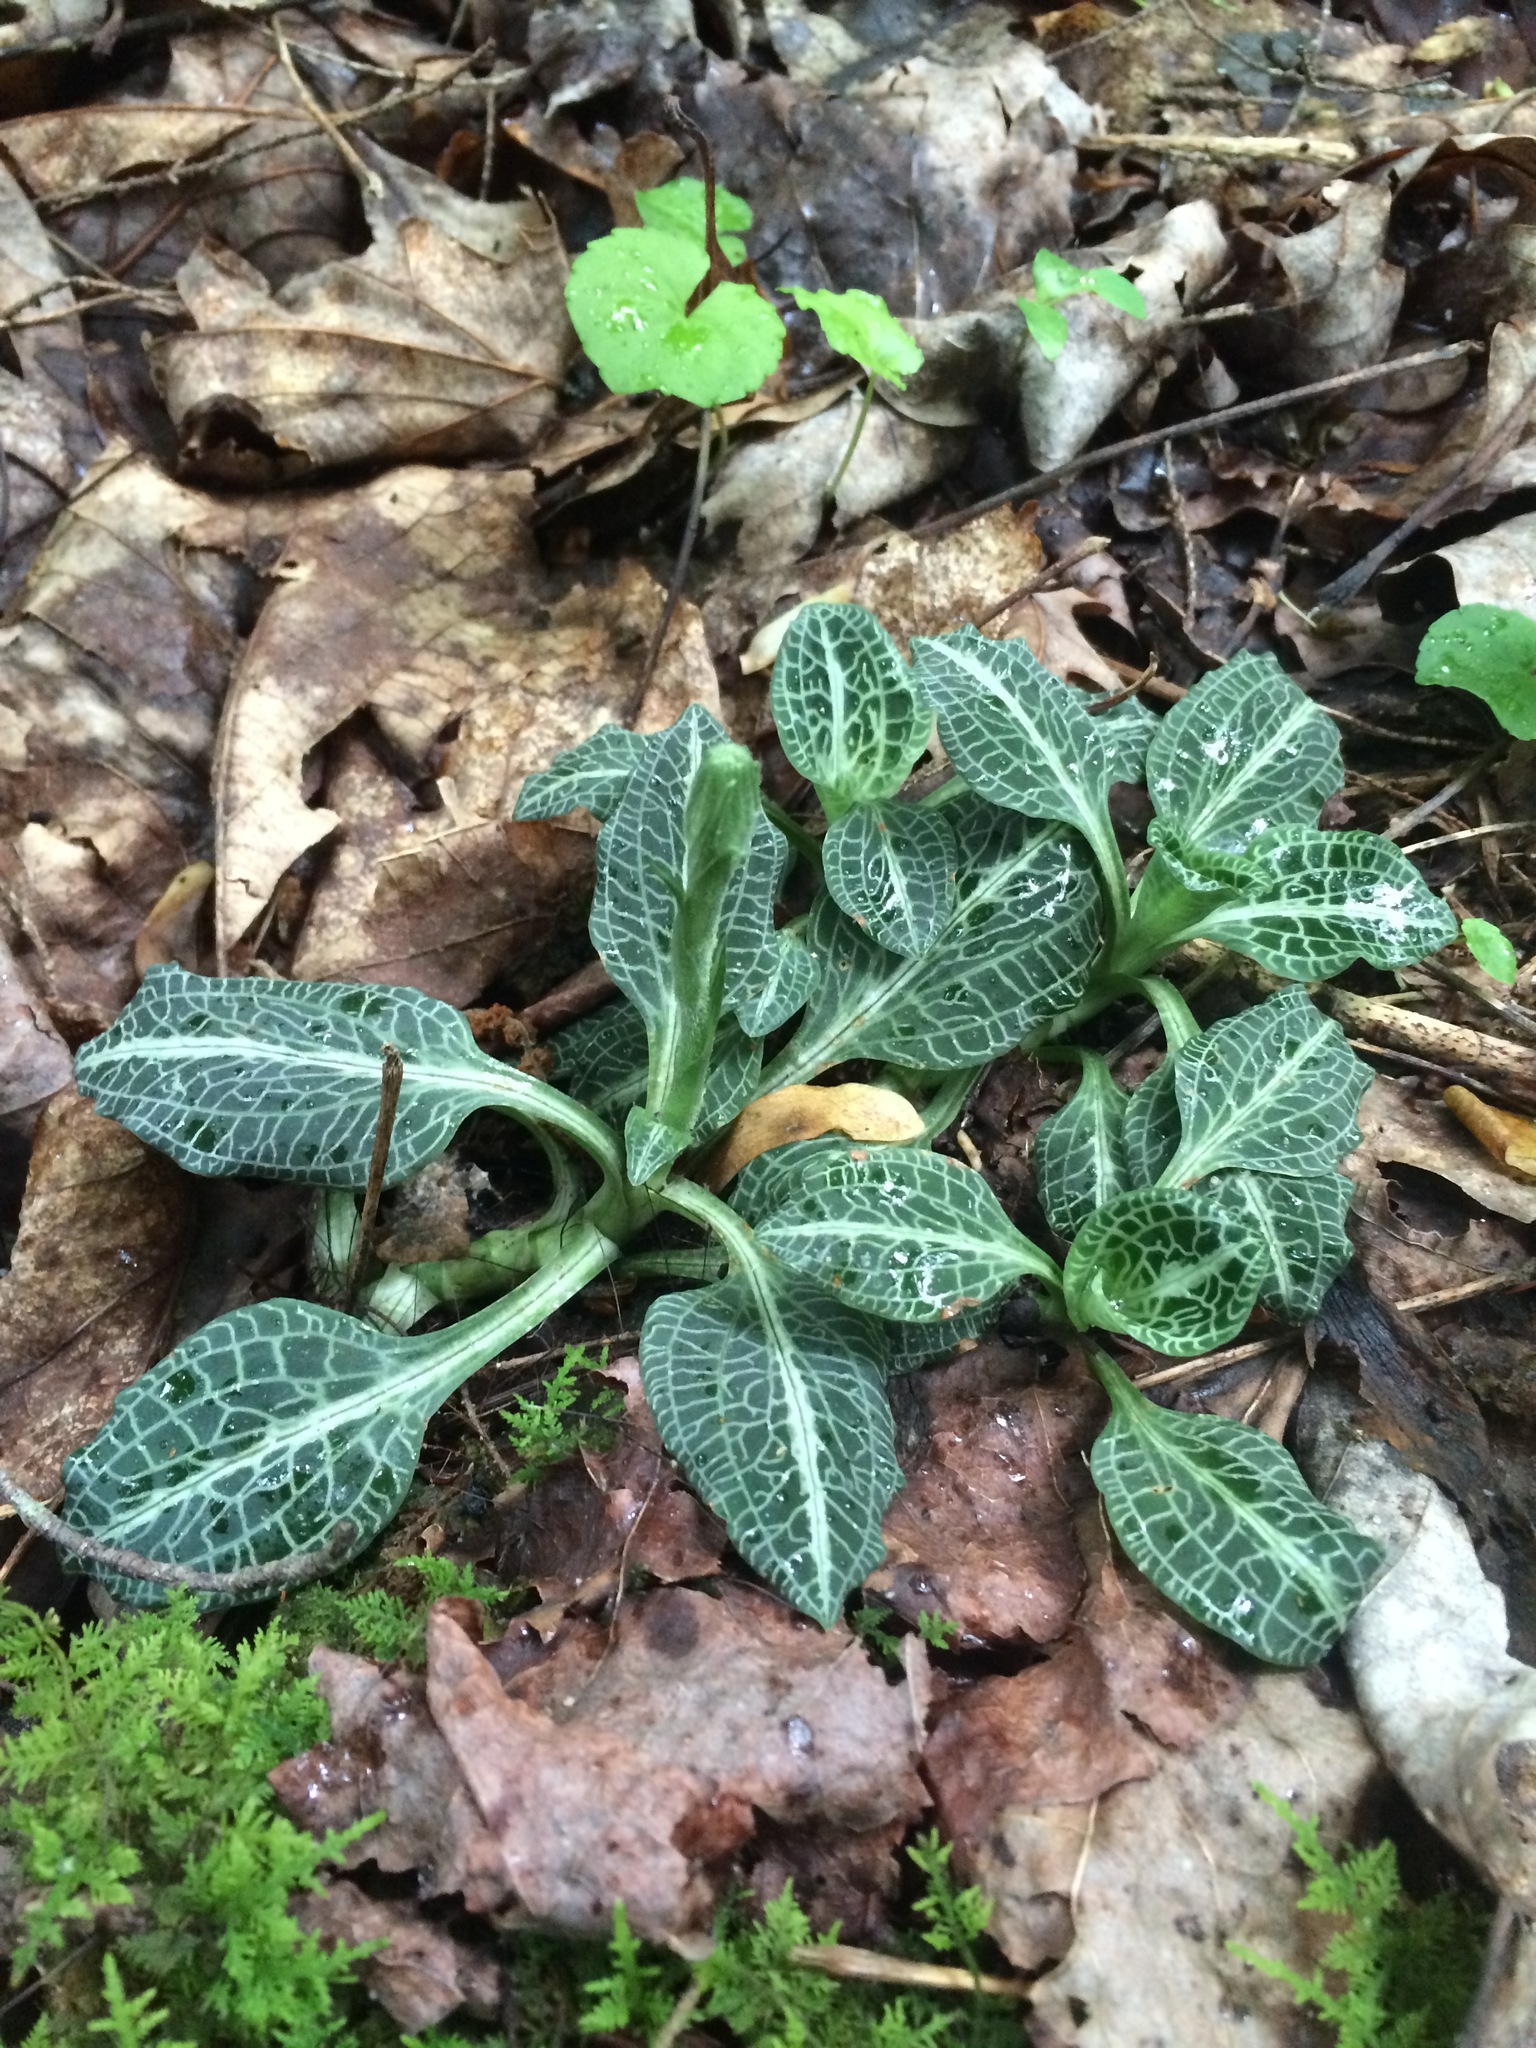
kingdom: Plantae
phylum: Tracheophyta
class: Liliopsida
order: Asparagales
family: Orchidaceae
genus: Goodyera
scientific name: Goodyera pubescens
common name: Downy rattlesnake-plantain
